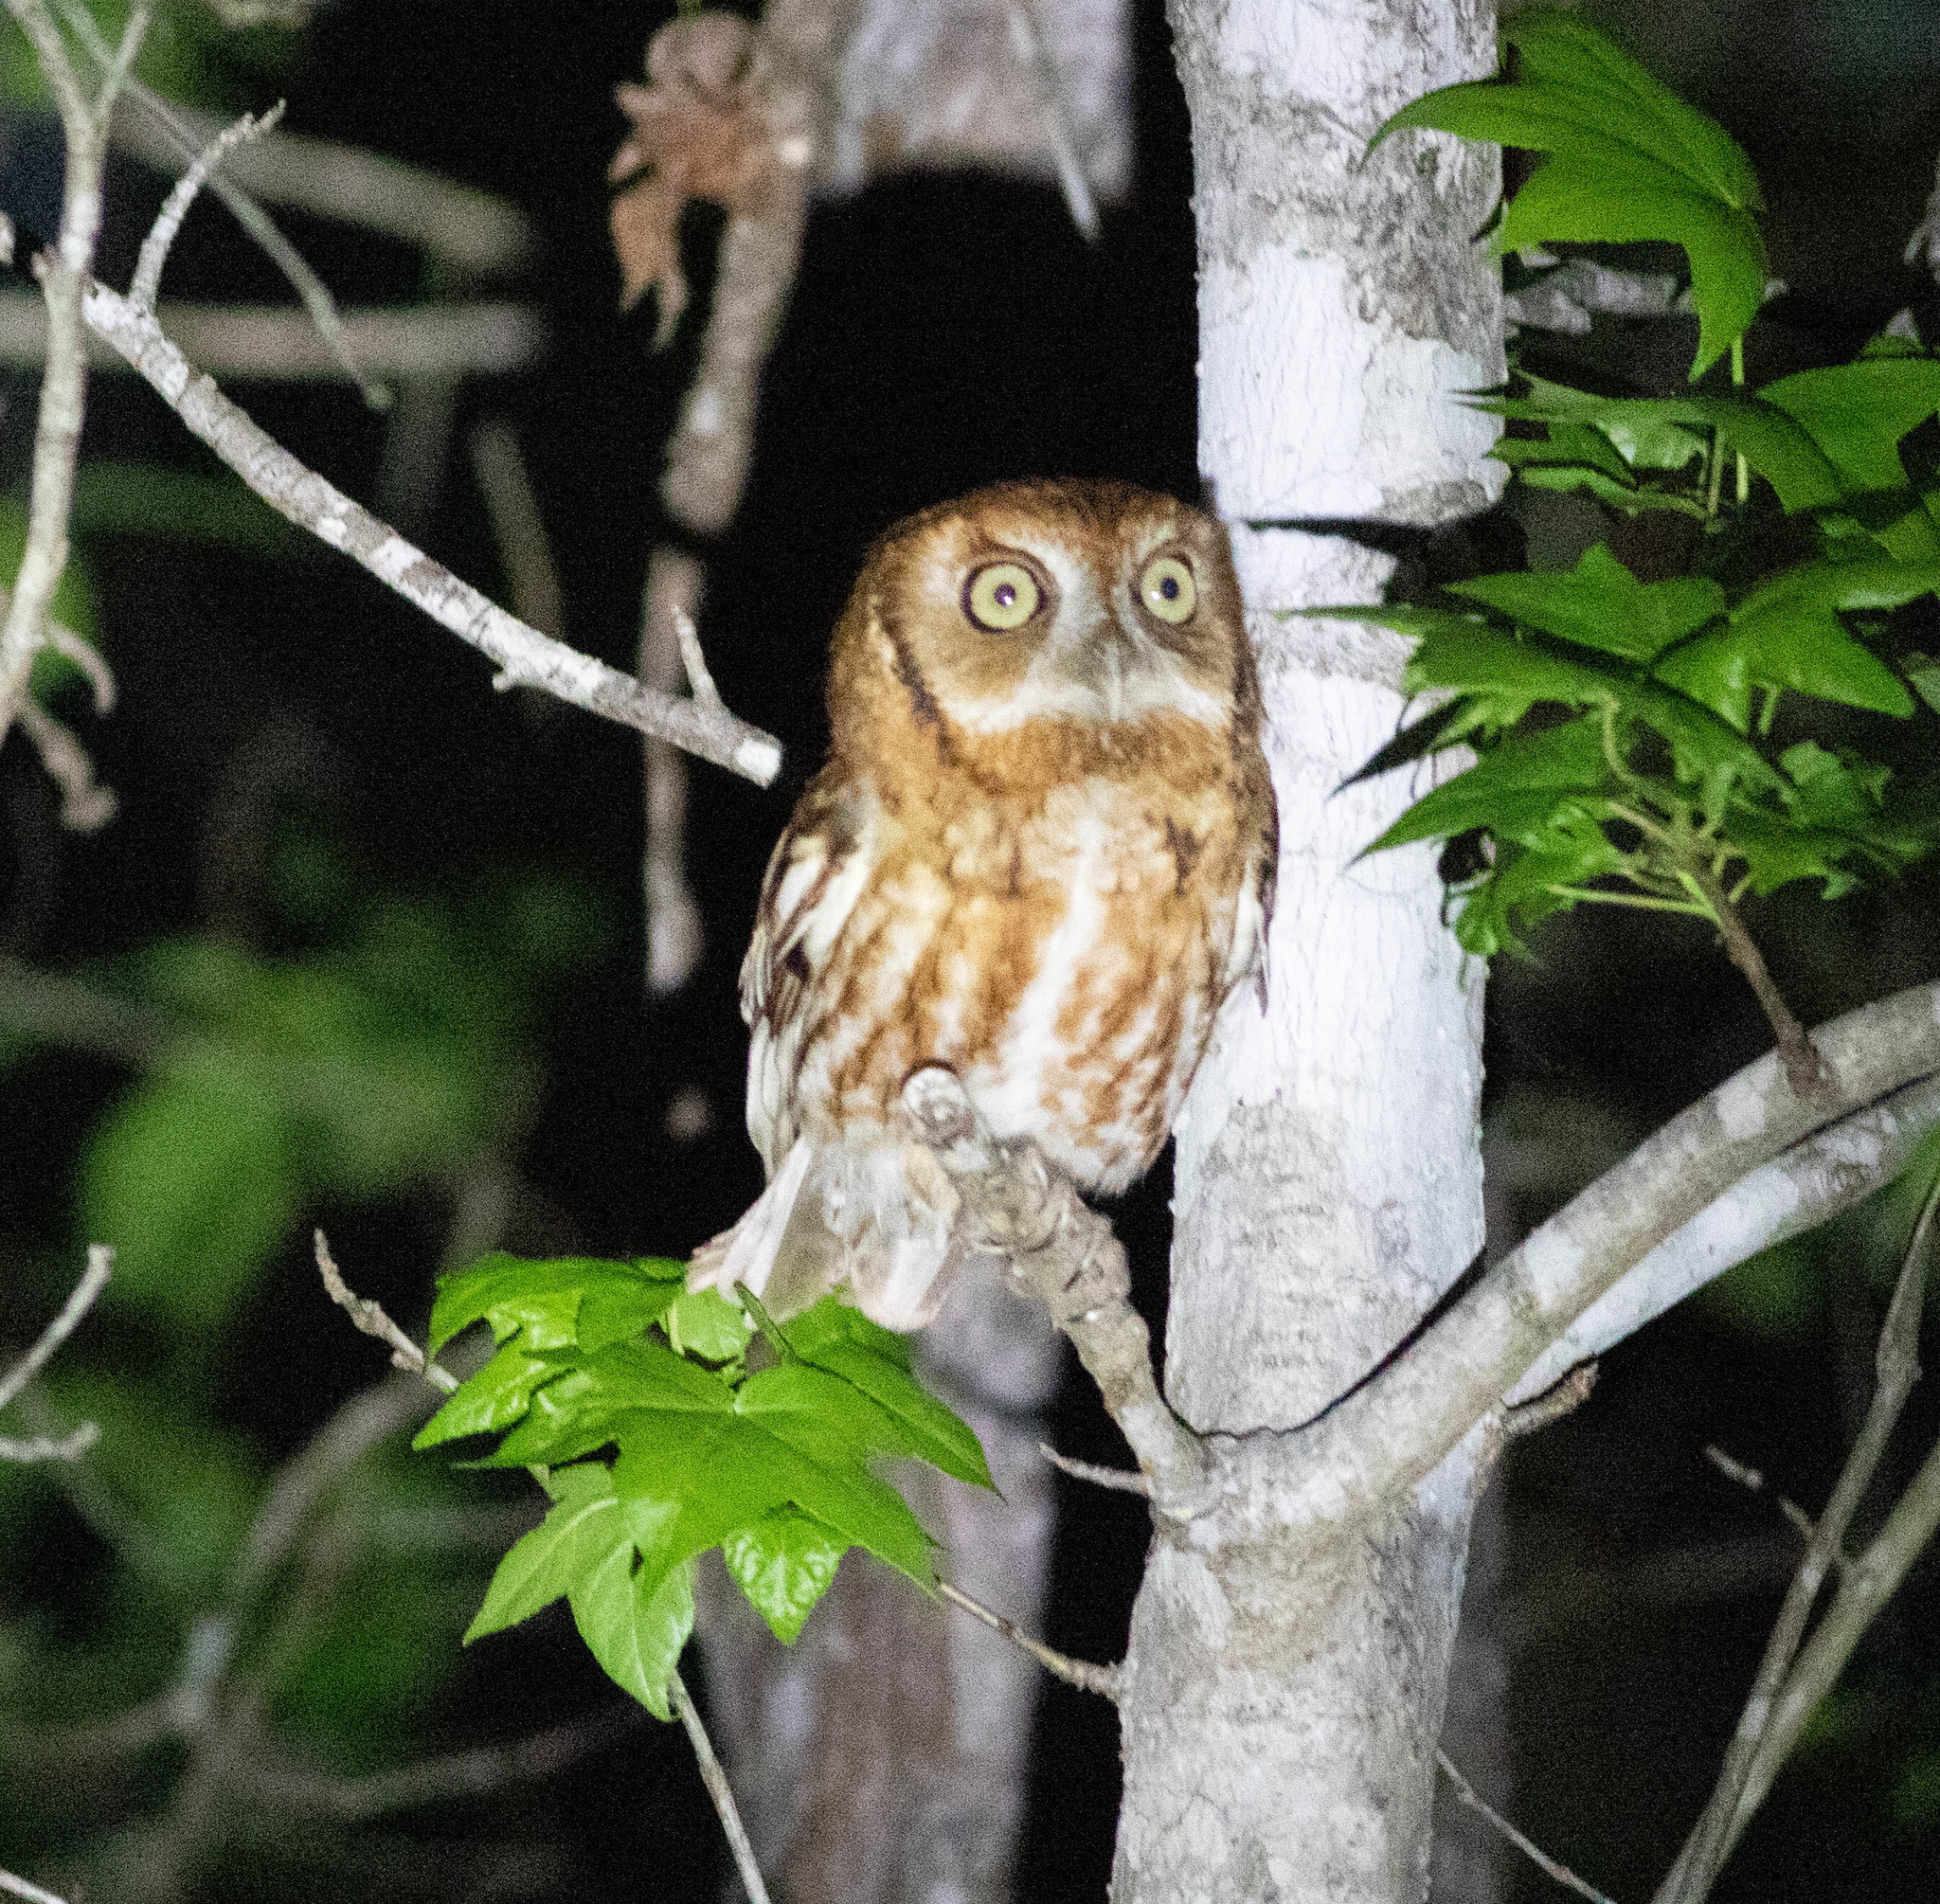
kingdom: Animalia
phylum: Chordata
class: Aves
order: Strigiformes
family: Strigidae
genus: Megascops
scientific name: Megascops asio
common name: Eastern screech-owl
